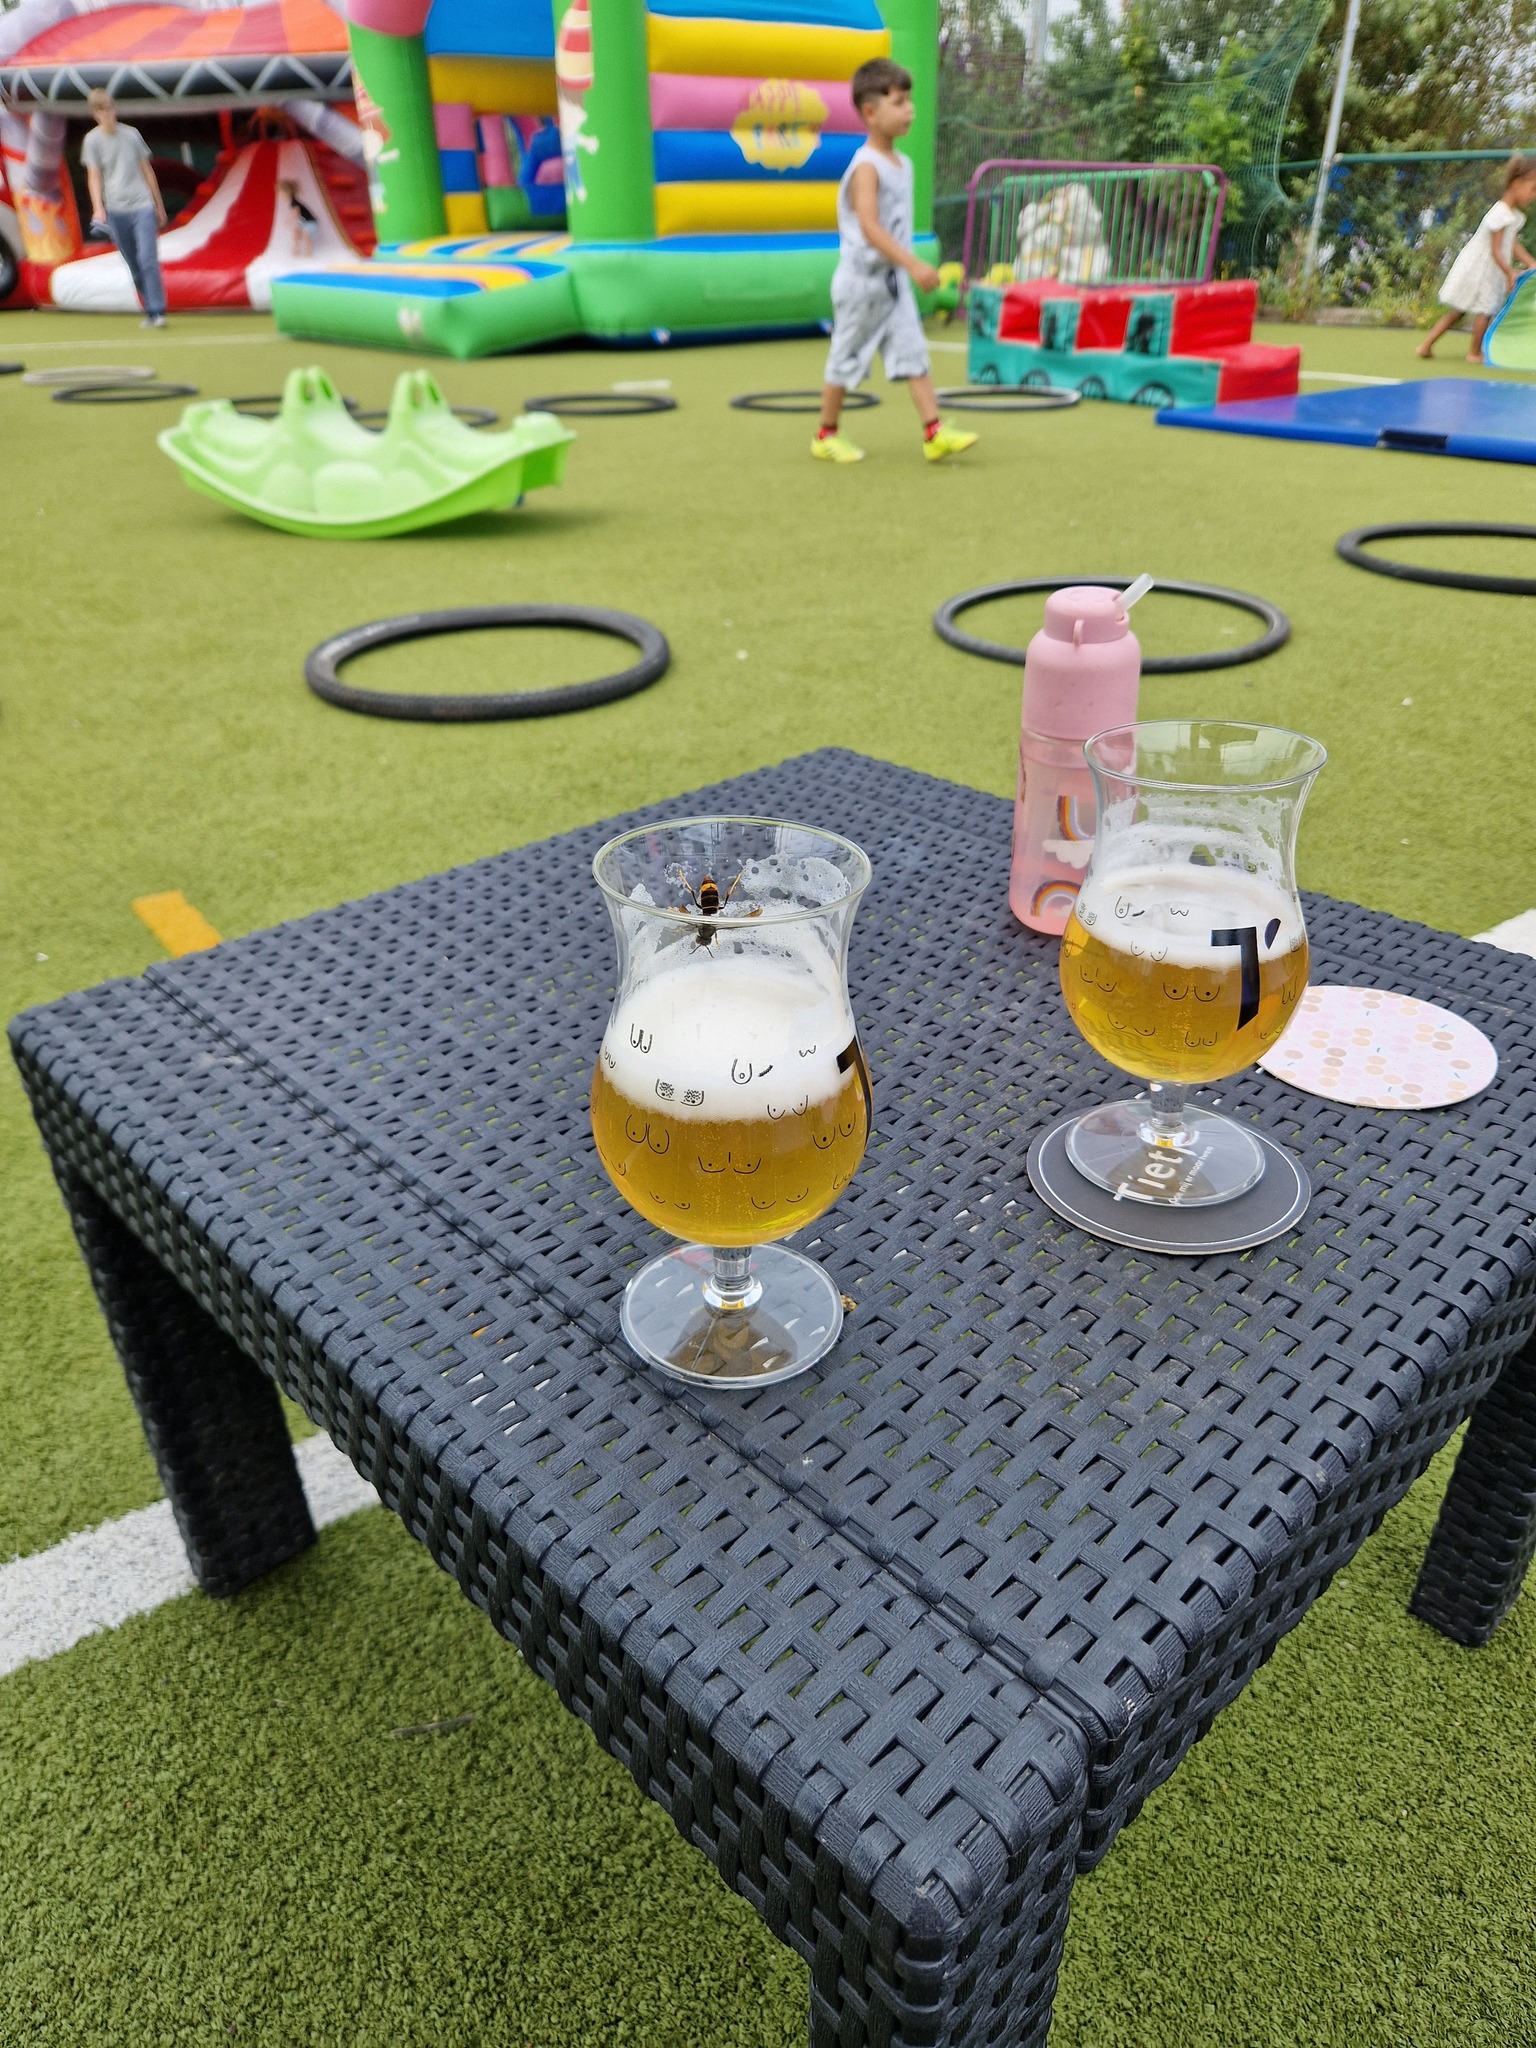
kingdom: Animalia
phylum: Arthropoda
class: Insecta
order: Hymenoptera
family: Vespidae
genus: Vespa
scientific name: Vespa velutina
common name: Asian hornet
